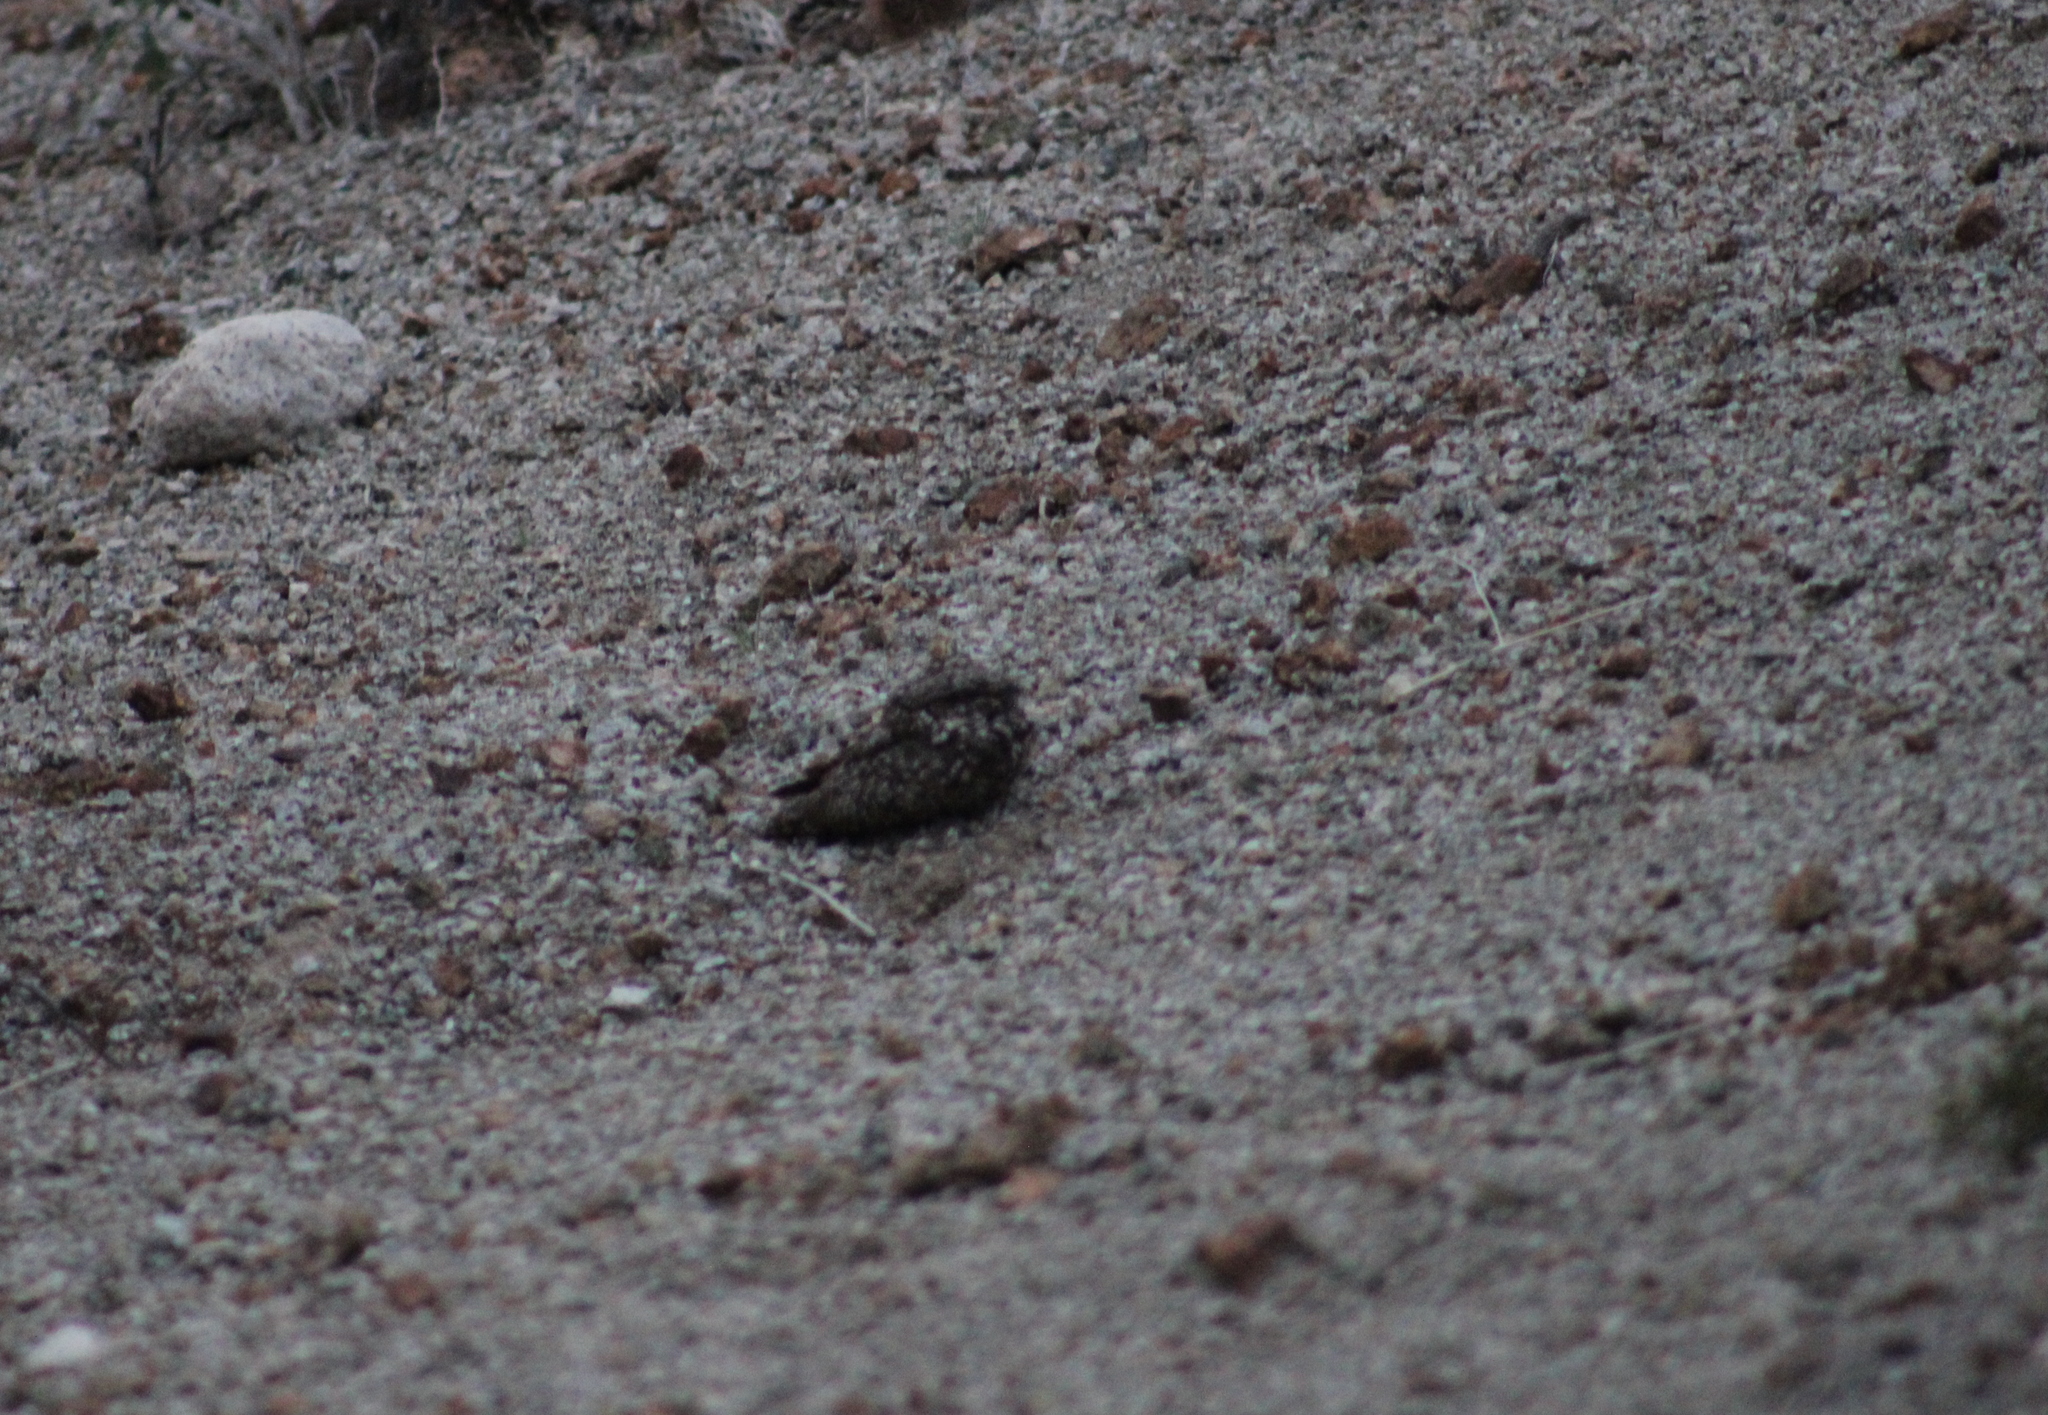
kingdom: Animalia
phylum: Chordata
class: Aves
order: Caprimulgiformes
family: Caprimulgidae
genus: Phalaenoptilus
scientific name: Phalaenoptilus nuttallii
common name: Common poorwill
